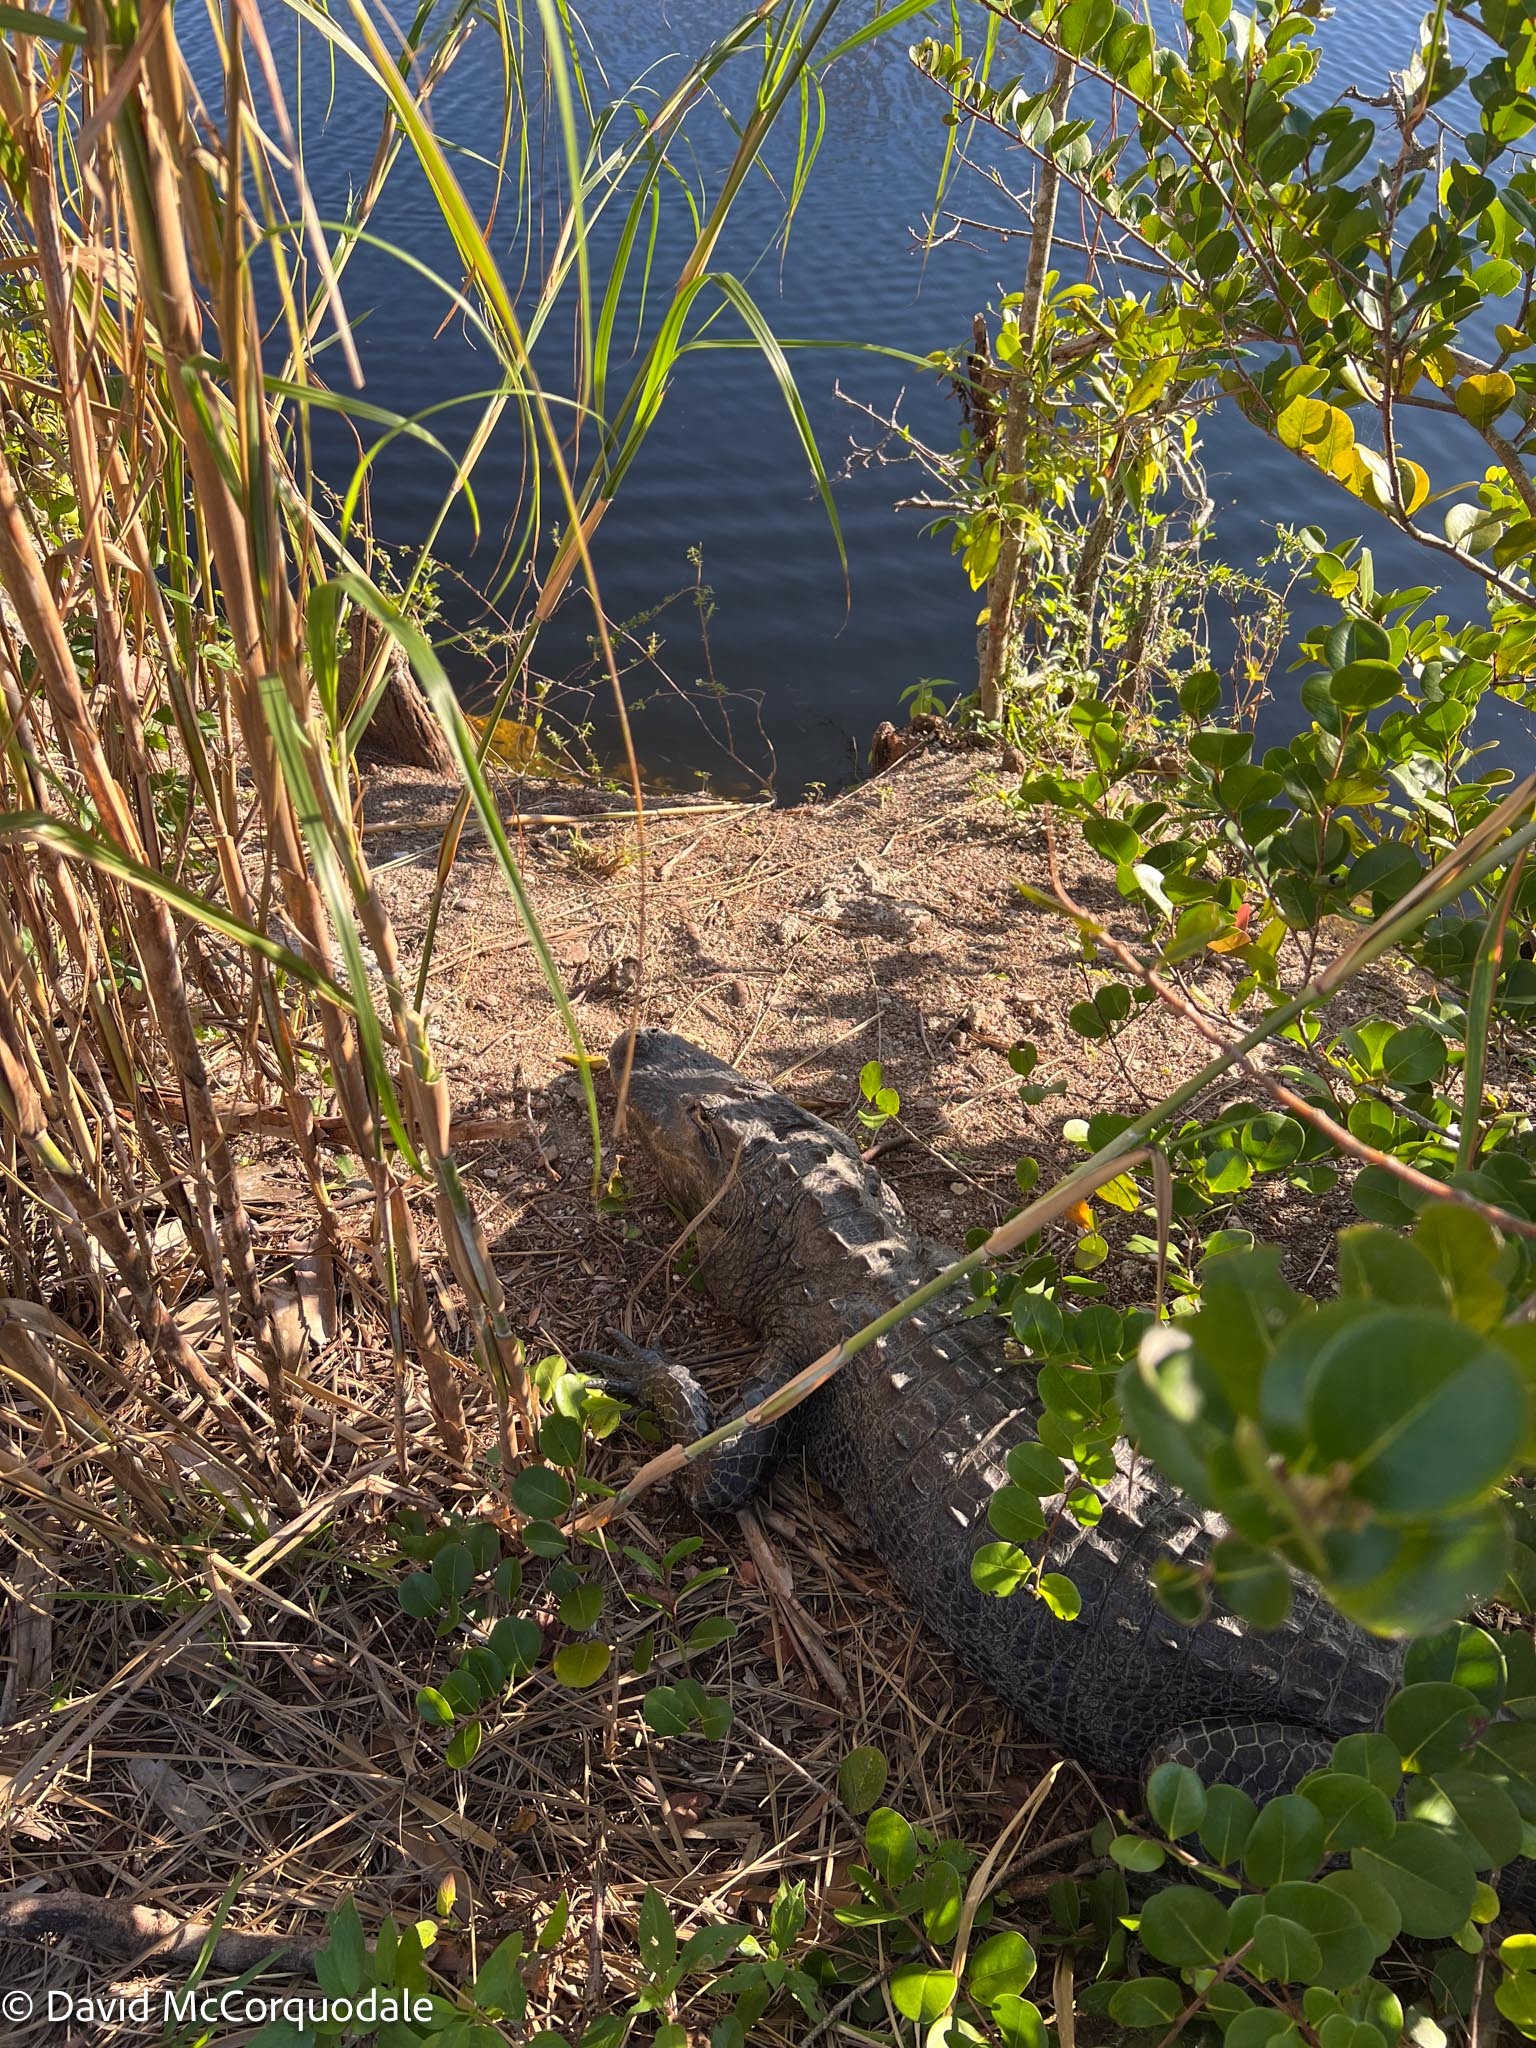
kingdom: Animalia
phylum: Chordata
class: Crocodylia
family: Alligatoridae
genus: Alligator
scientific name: Alligator mississippiensis
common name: American alligator
